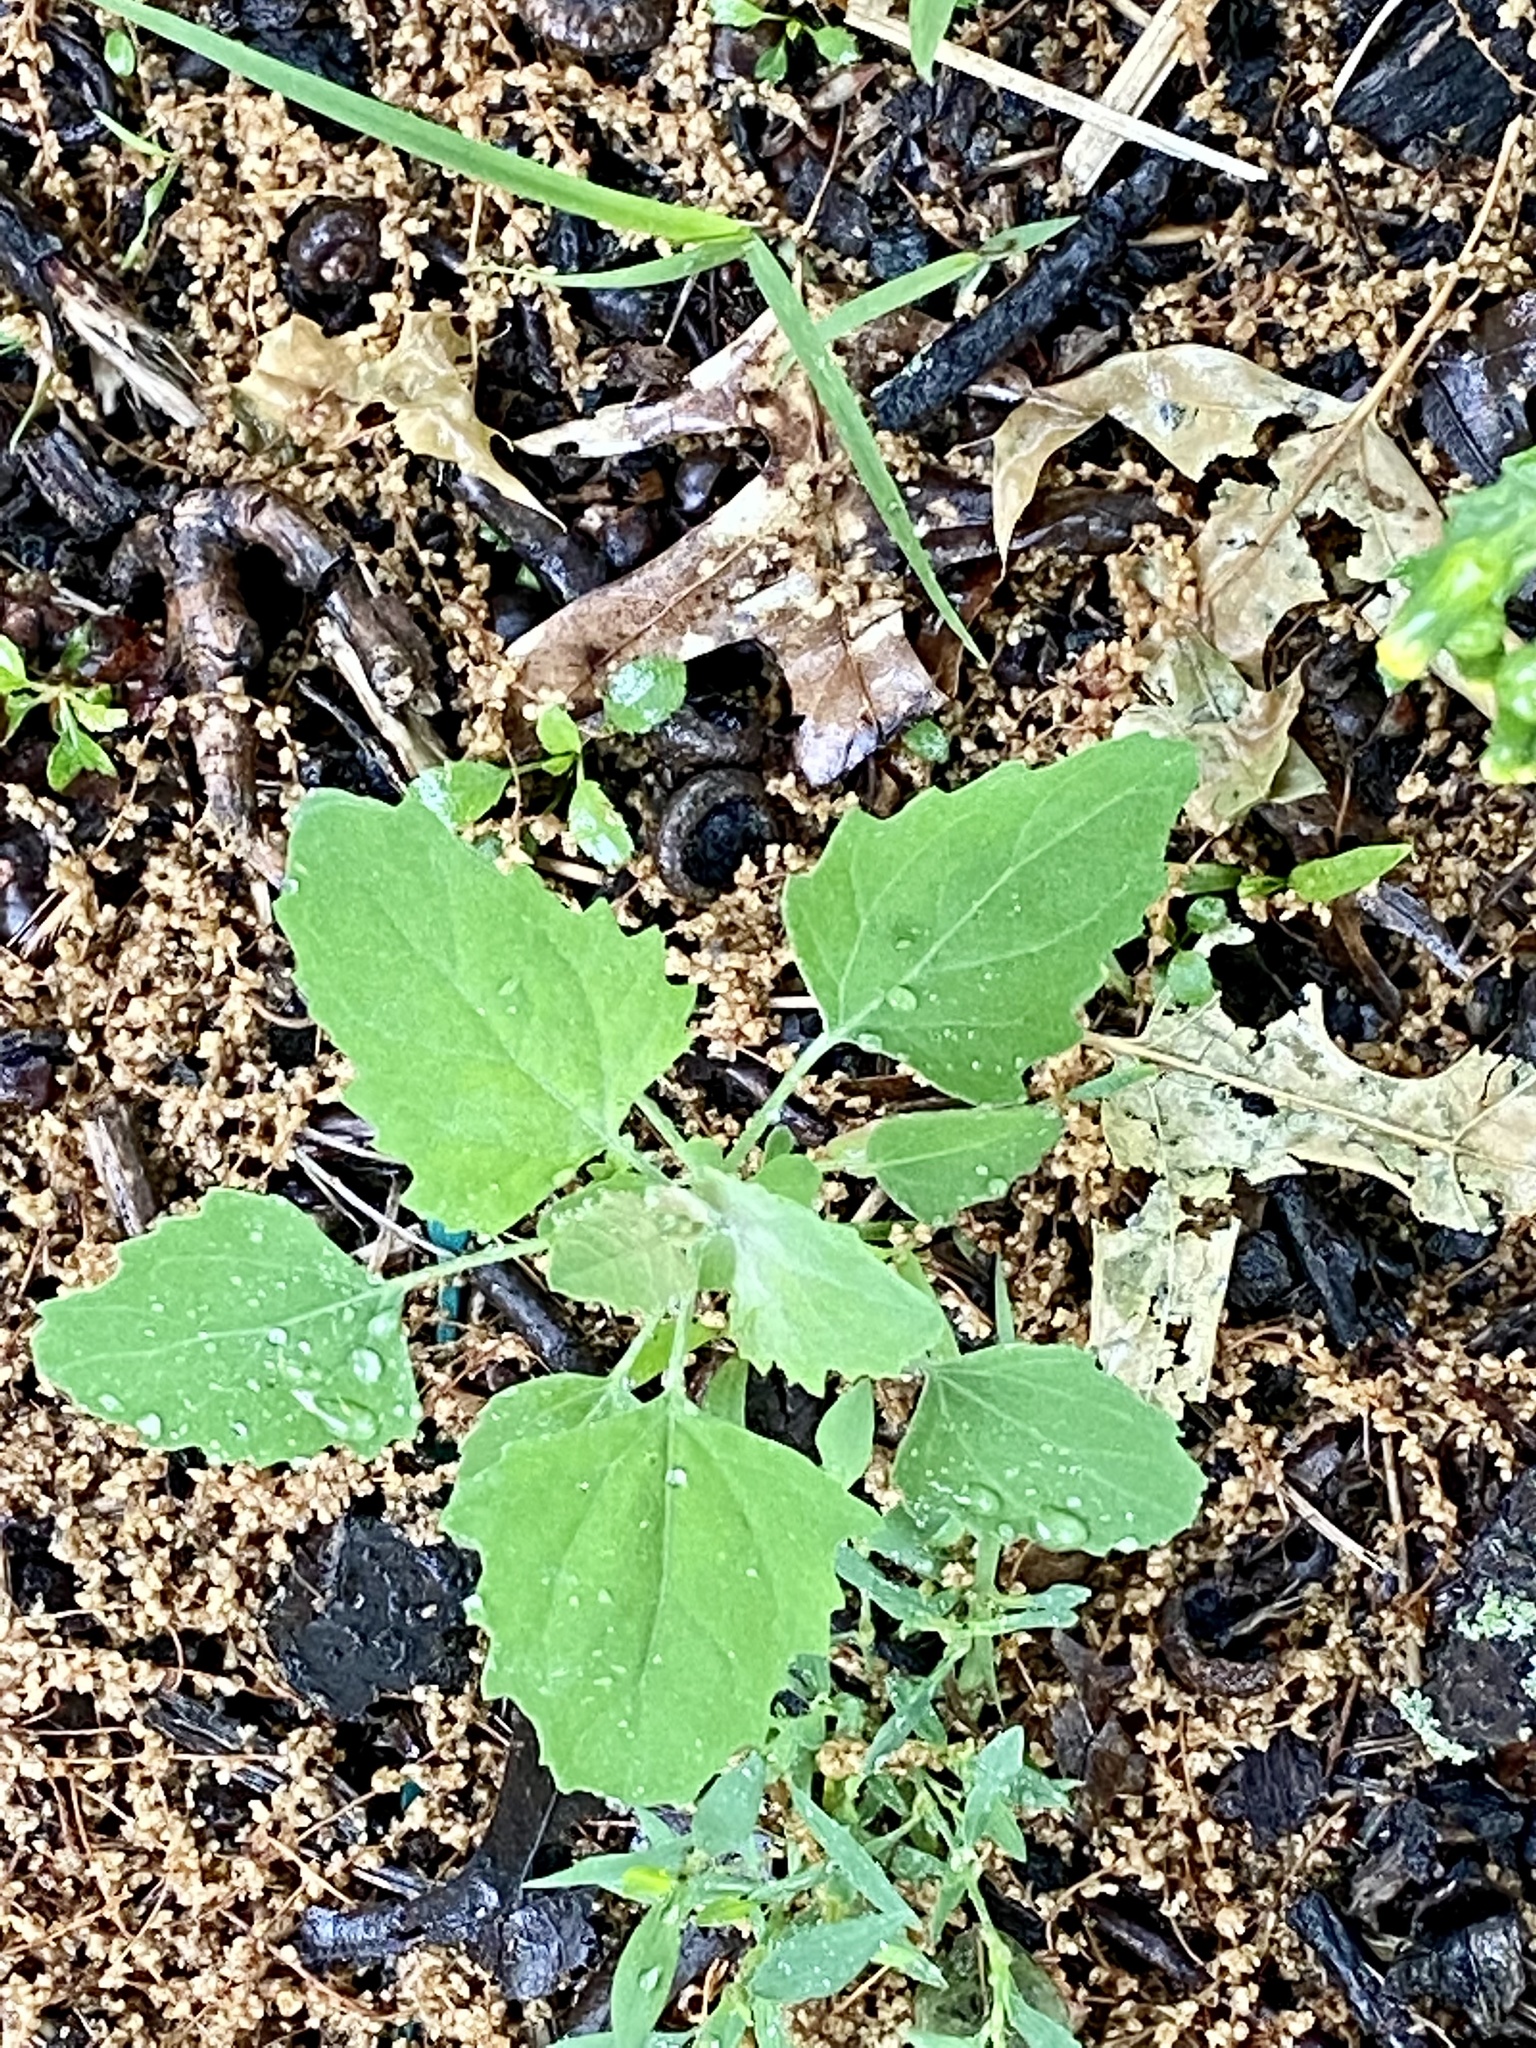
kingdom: Plantae
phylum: Tracheophyta
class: Magnoliopsida
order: Caryophyllales
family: Amaranthaceae
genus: Chenopodium
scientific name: Chenopodium album
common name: Fat-hen
